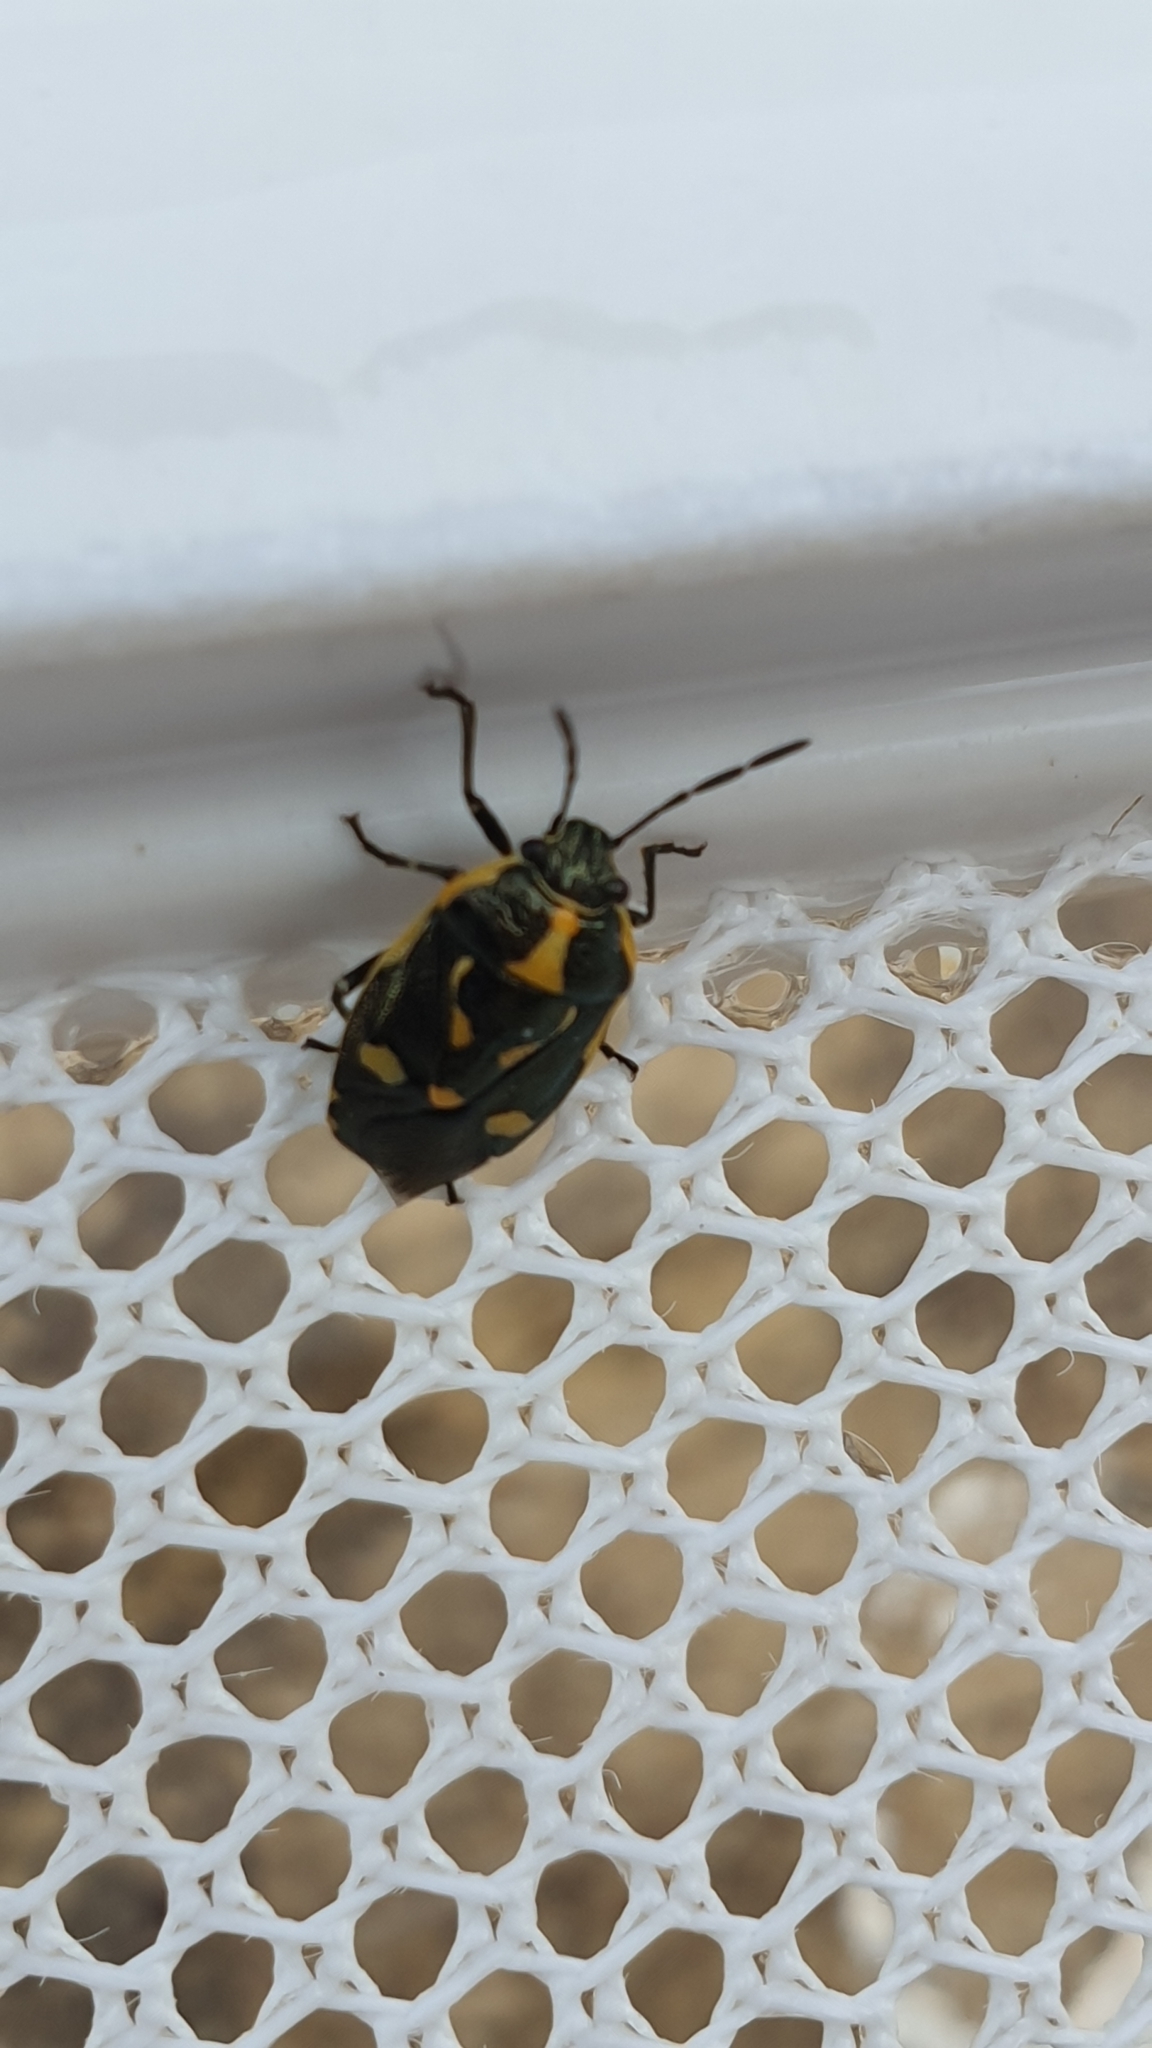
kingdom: Animalia
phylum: Arthropoda
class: Insecta
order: Hemiptera
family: Pentatomidae
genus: Eurydema
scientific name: Eurydema oleracea
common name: Cabbage bug
